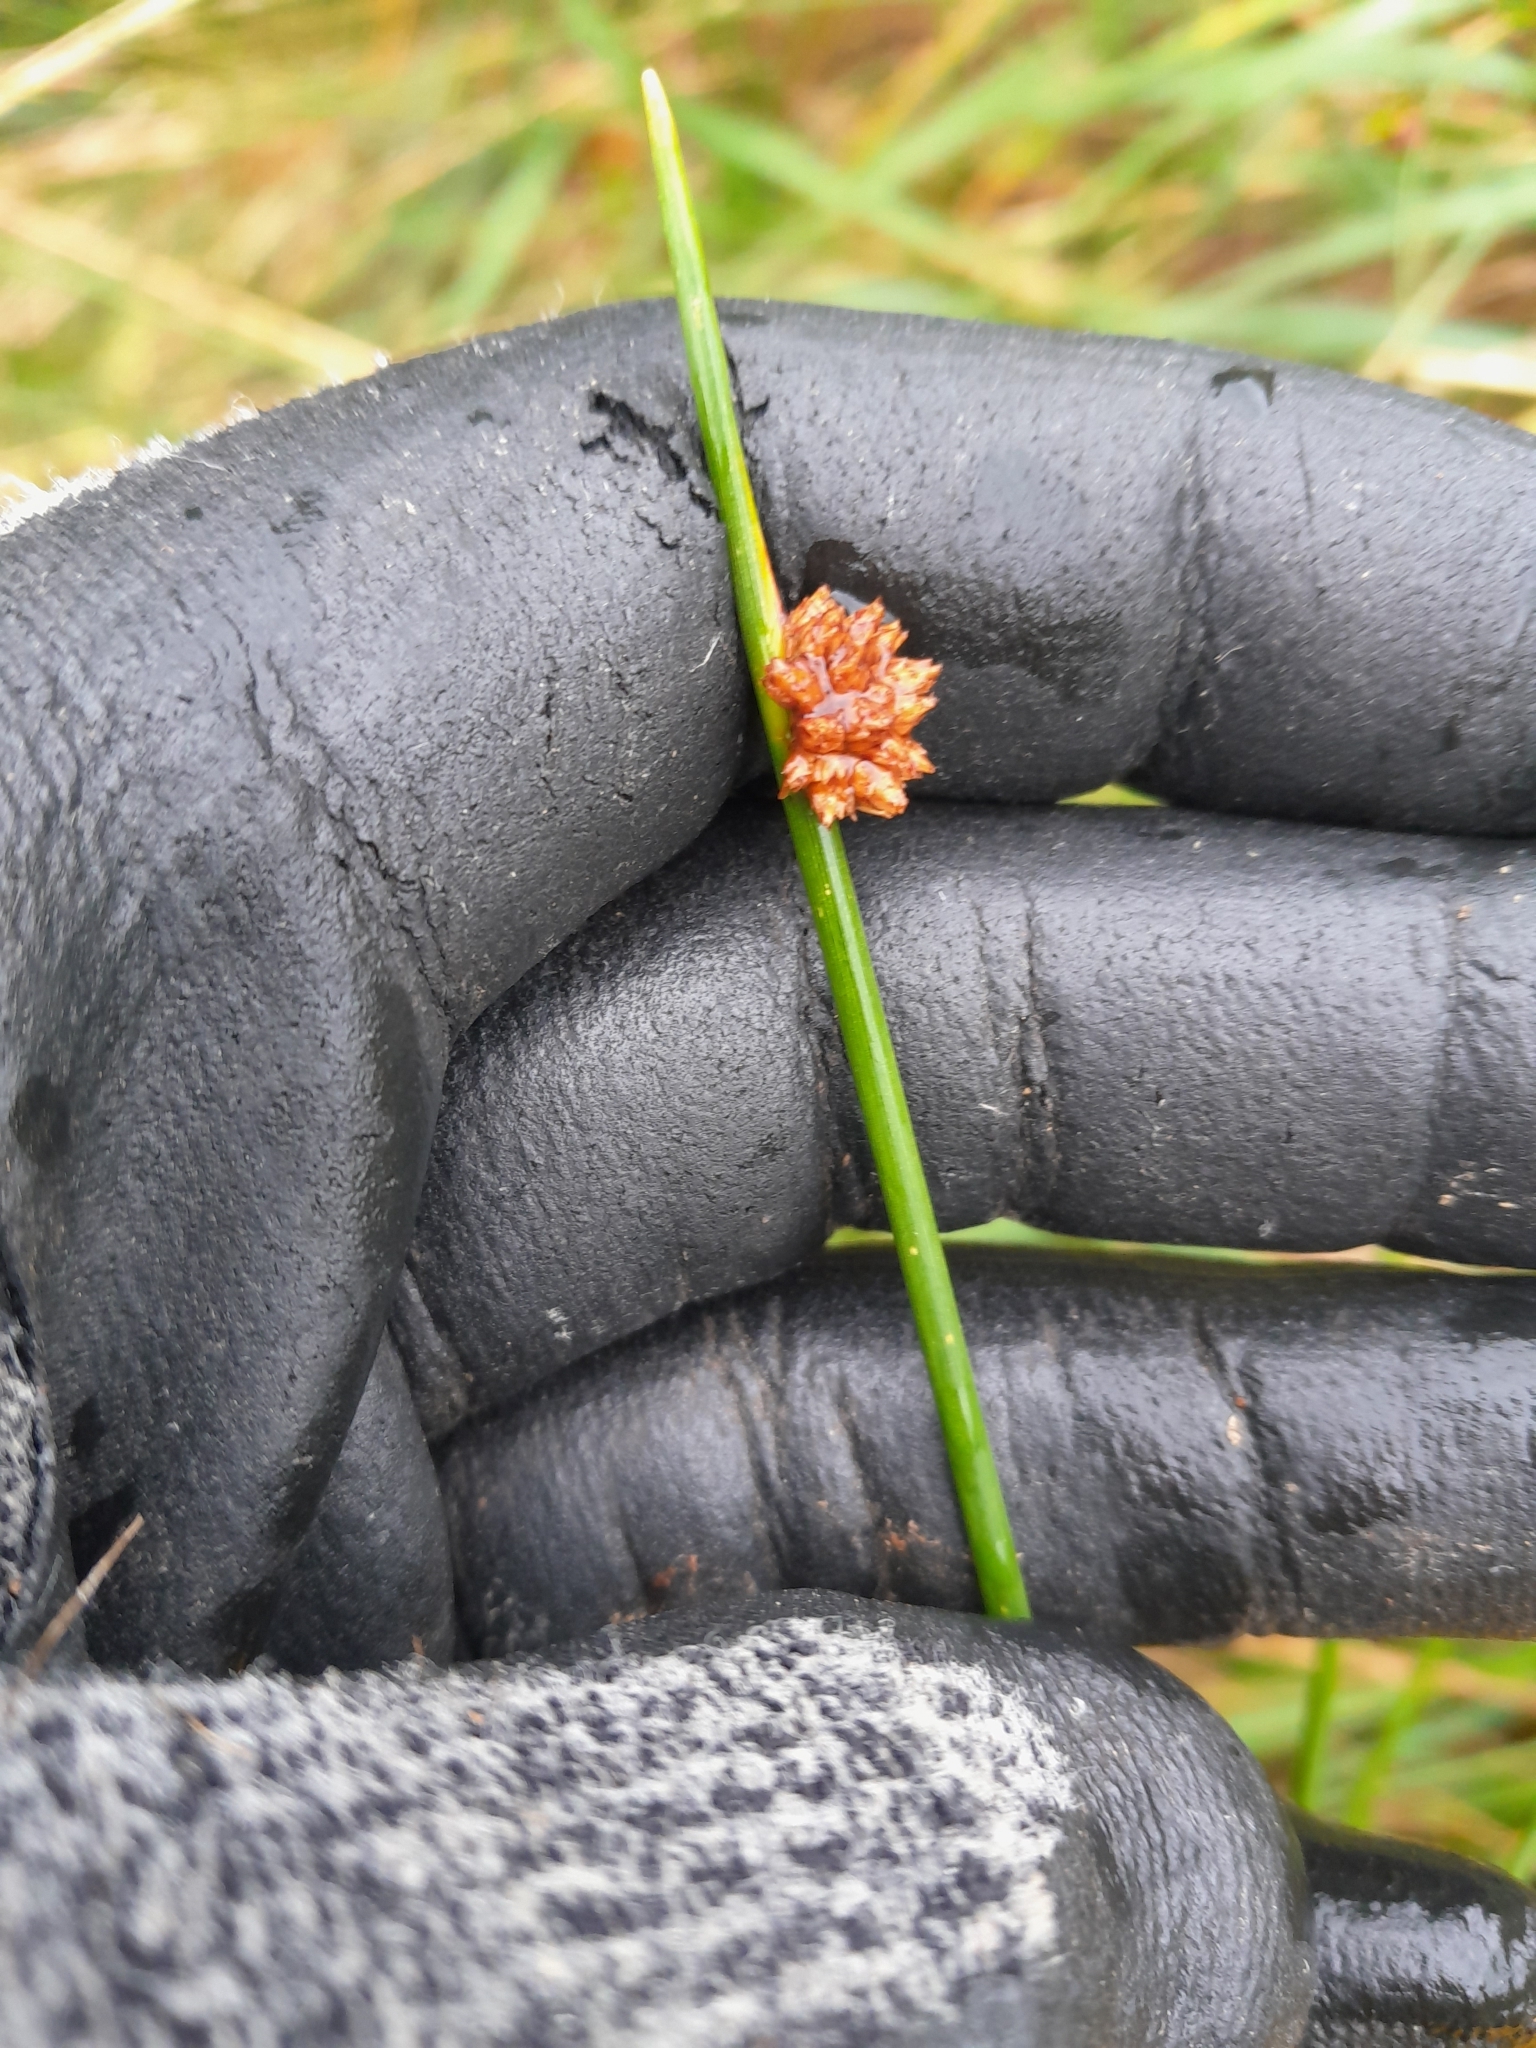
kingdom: Plantae
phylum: Tracheophyta
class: Liliopsida
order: Poales
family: Cyperaceae
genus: Ficinia
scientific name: Ficinia nodosa
